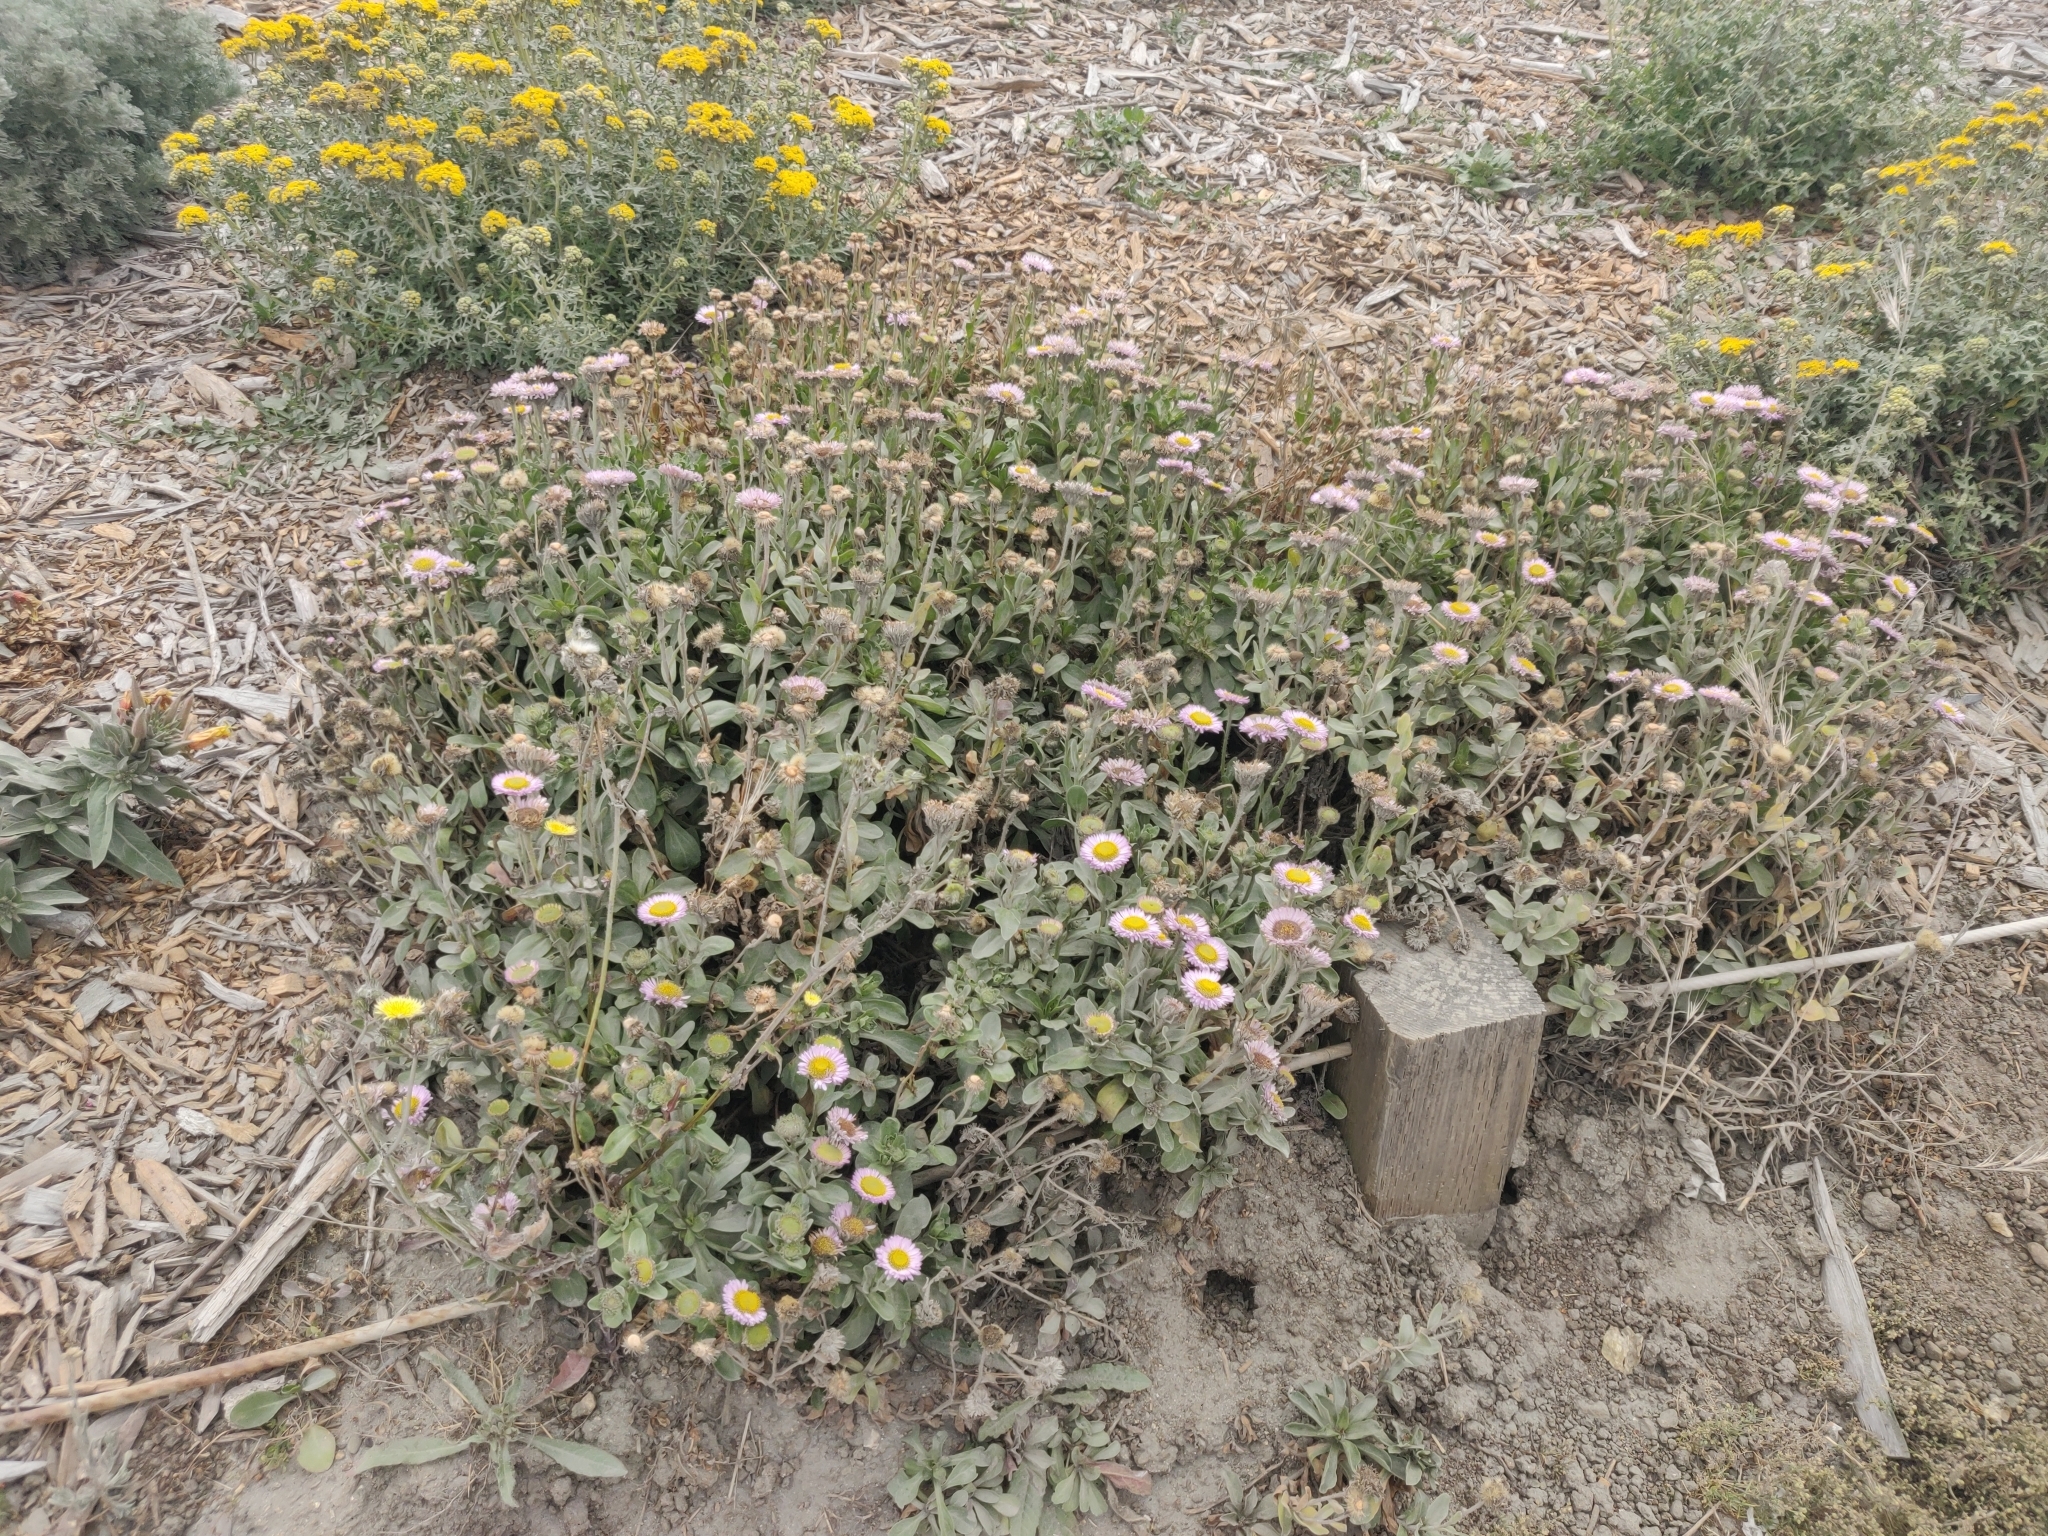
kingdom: Plantae
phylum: Tracheophyta
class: Magnoliopsida
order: Asterales
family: Asteraceae
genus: Erigeron
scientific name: Erigeron glaucus
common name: Seaside daisy
